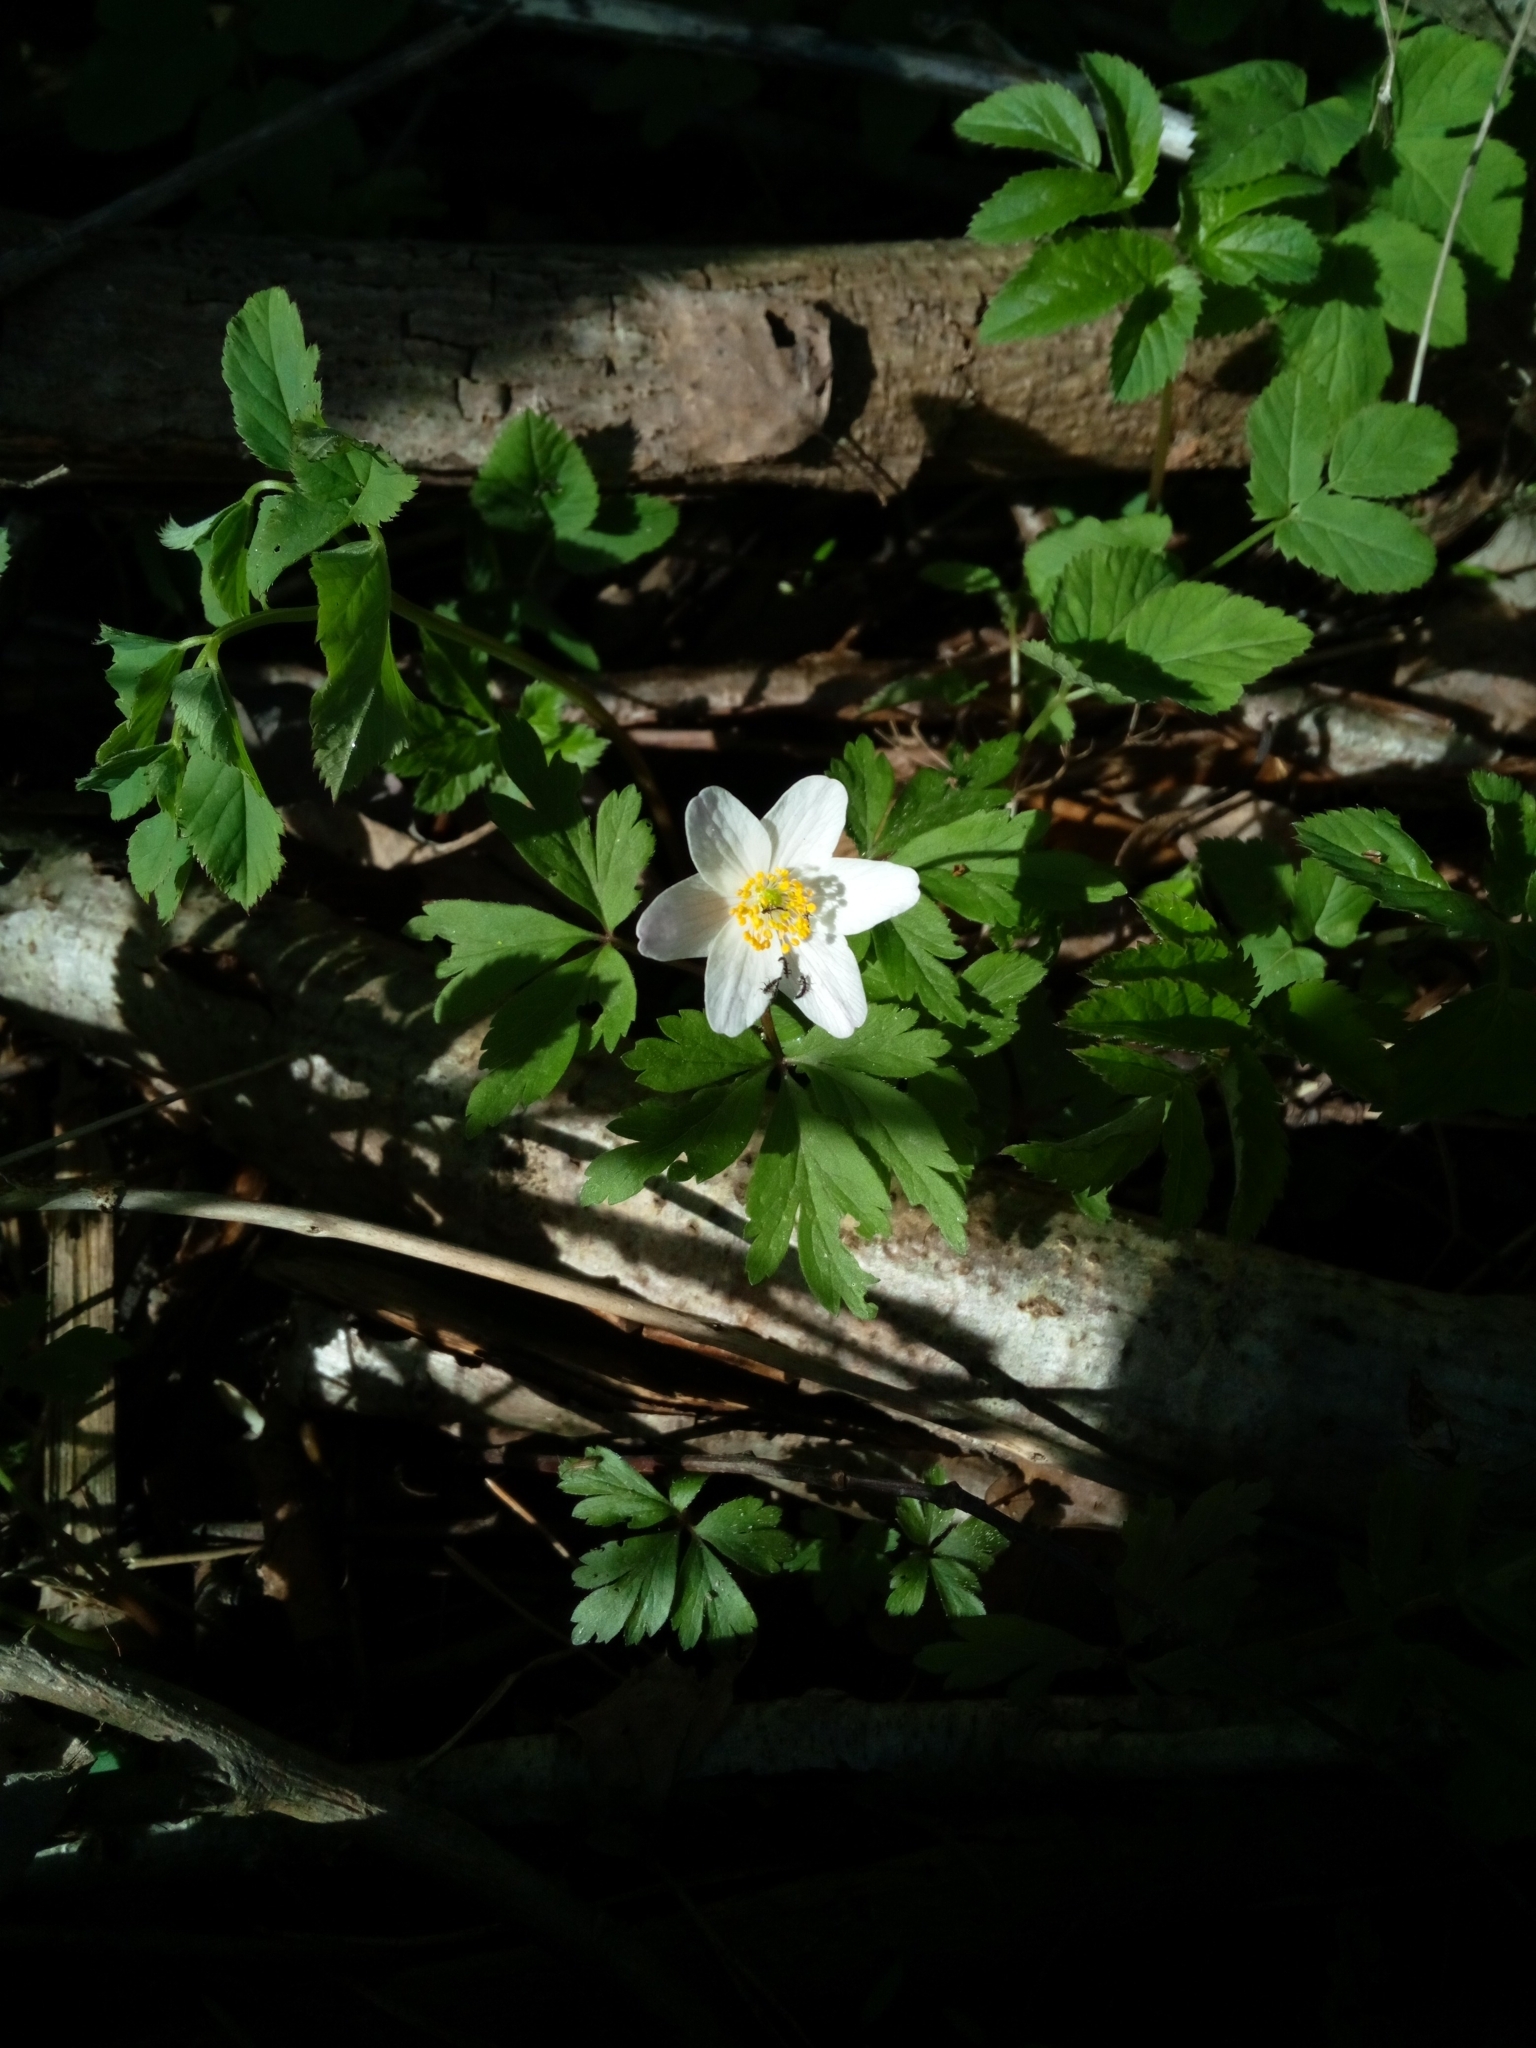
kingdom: Plantae
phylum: Tracheophyta
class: Magnoliopsida
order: Ranunculales
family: Ranunculaceae
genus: Anemone
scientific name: Anemone nemorosa
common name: Wood anemone
